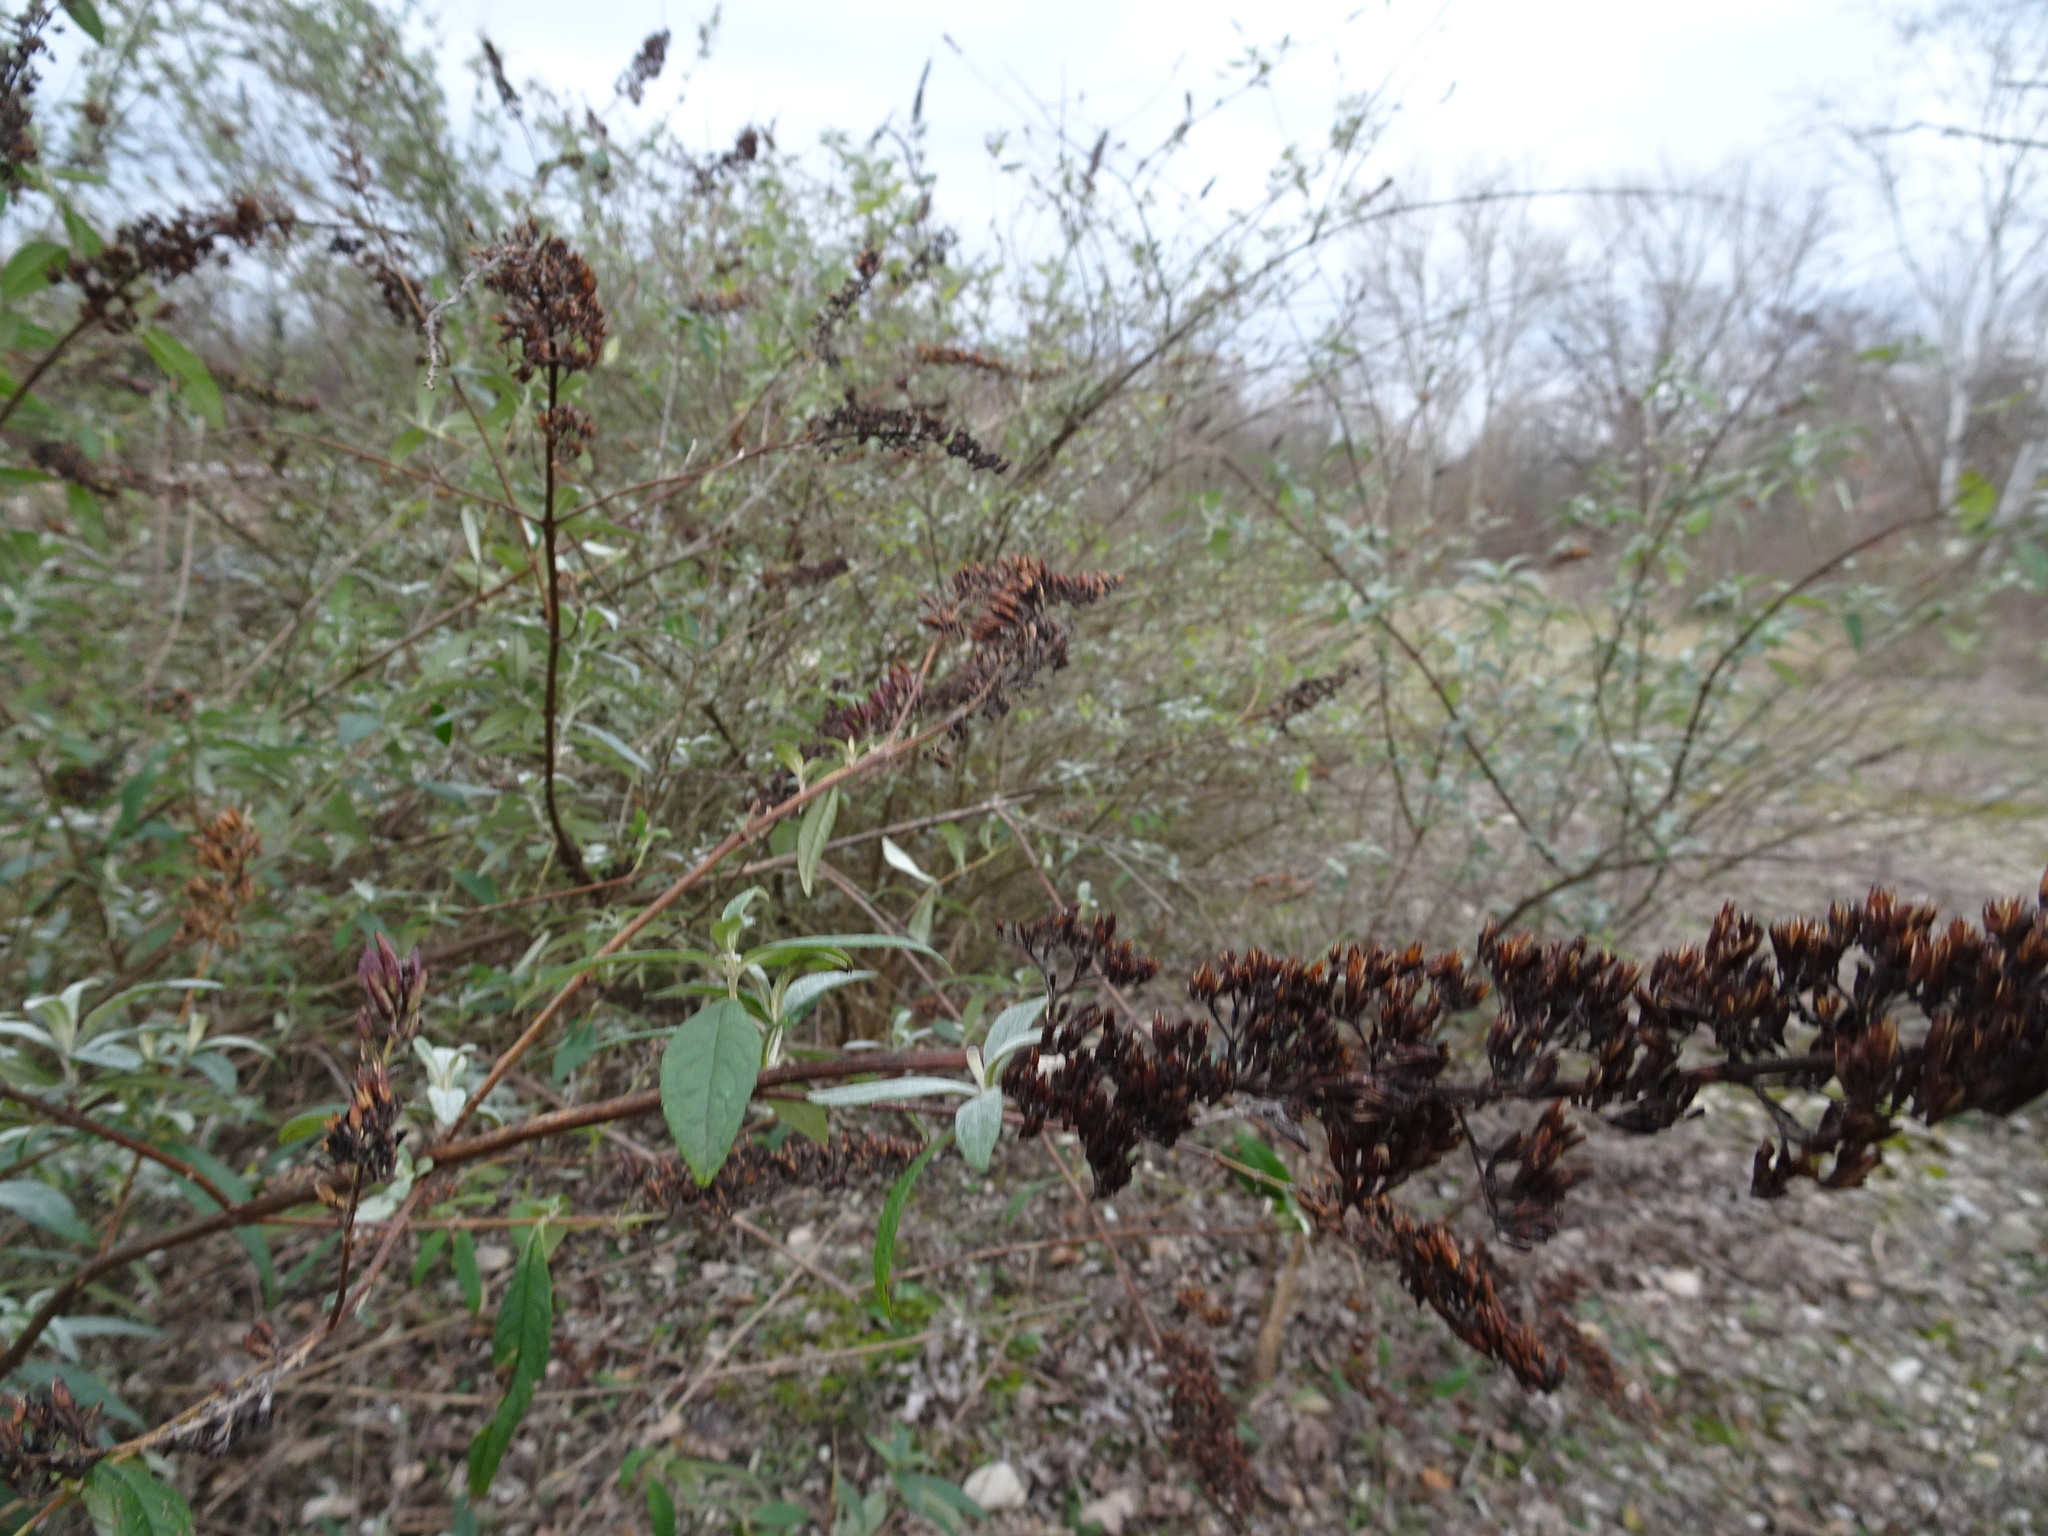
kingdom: Plantae
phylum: Tracheophyta
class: Magnoliopsida
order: Lamiales
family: Scrophulariaceae
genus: Buddleja
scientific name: Buddleja davidii
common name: Butterfly-bush
